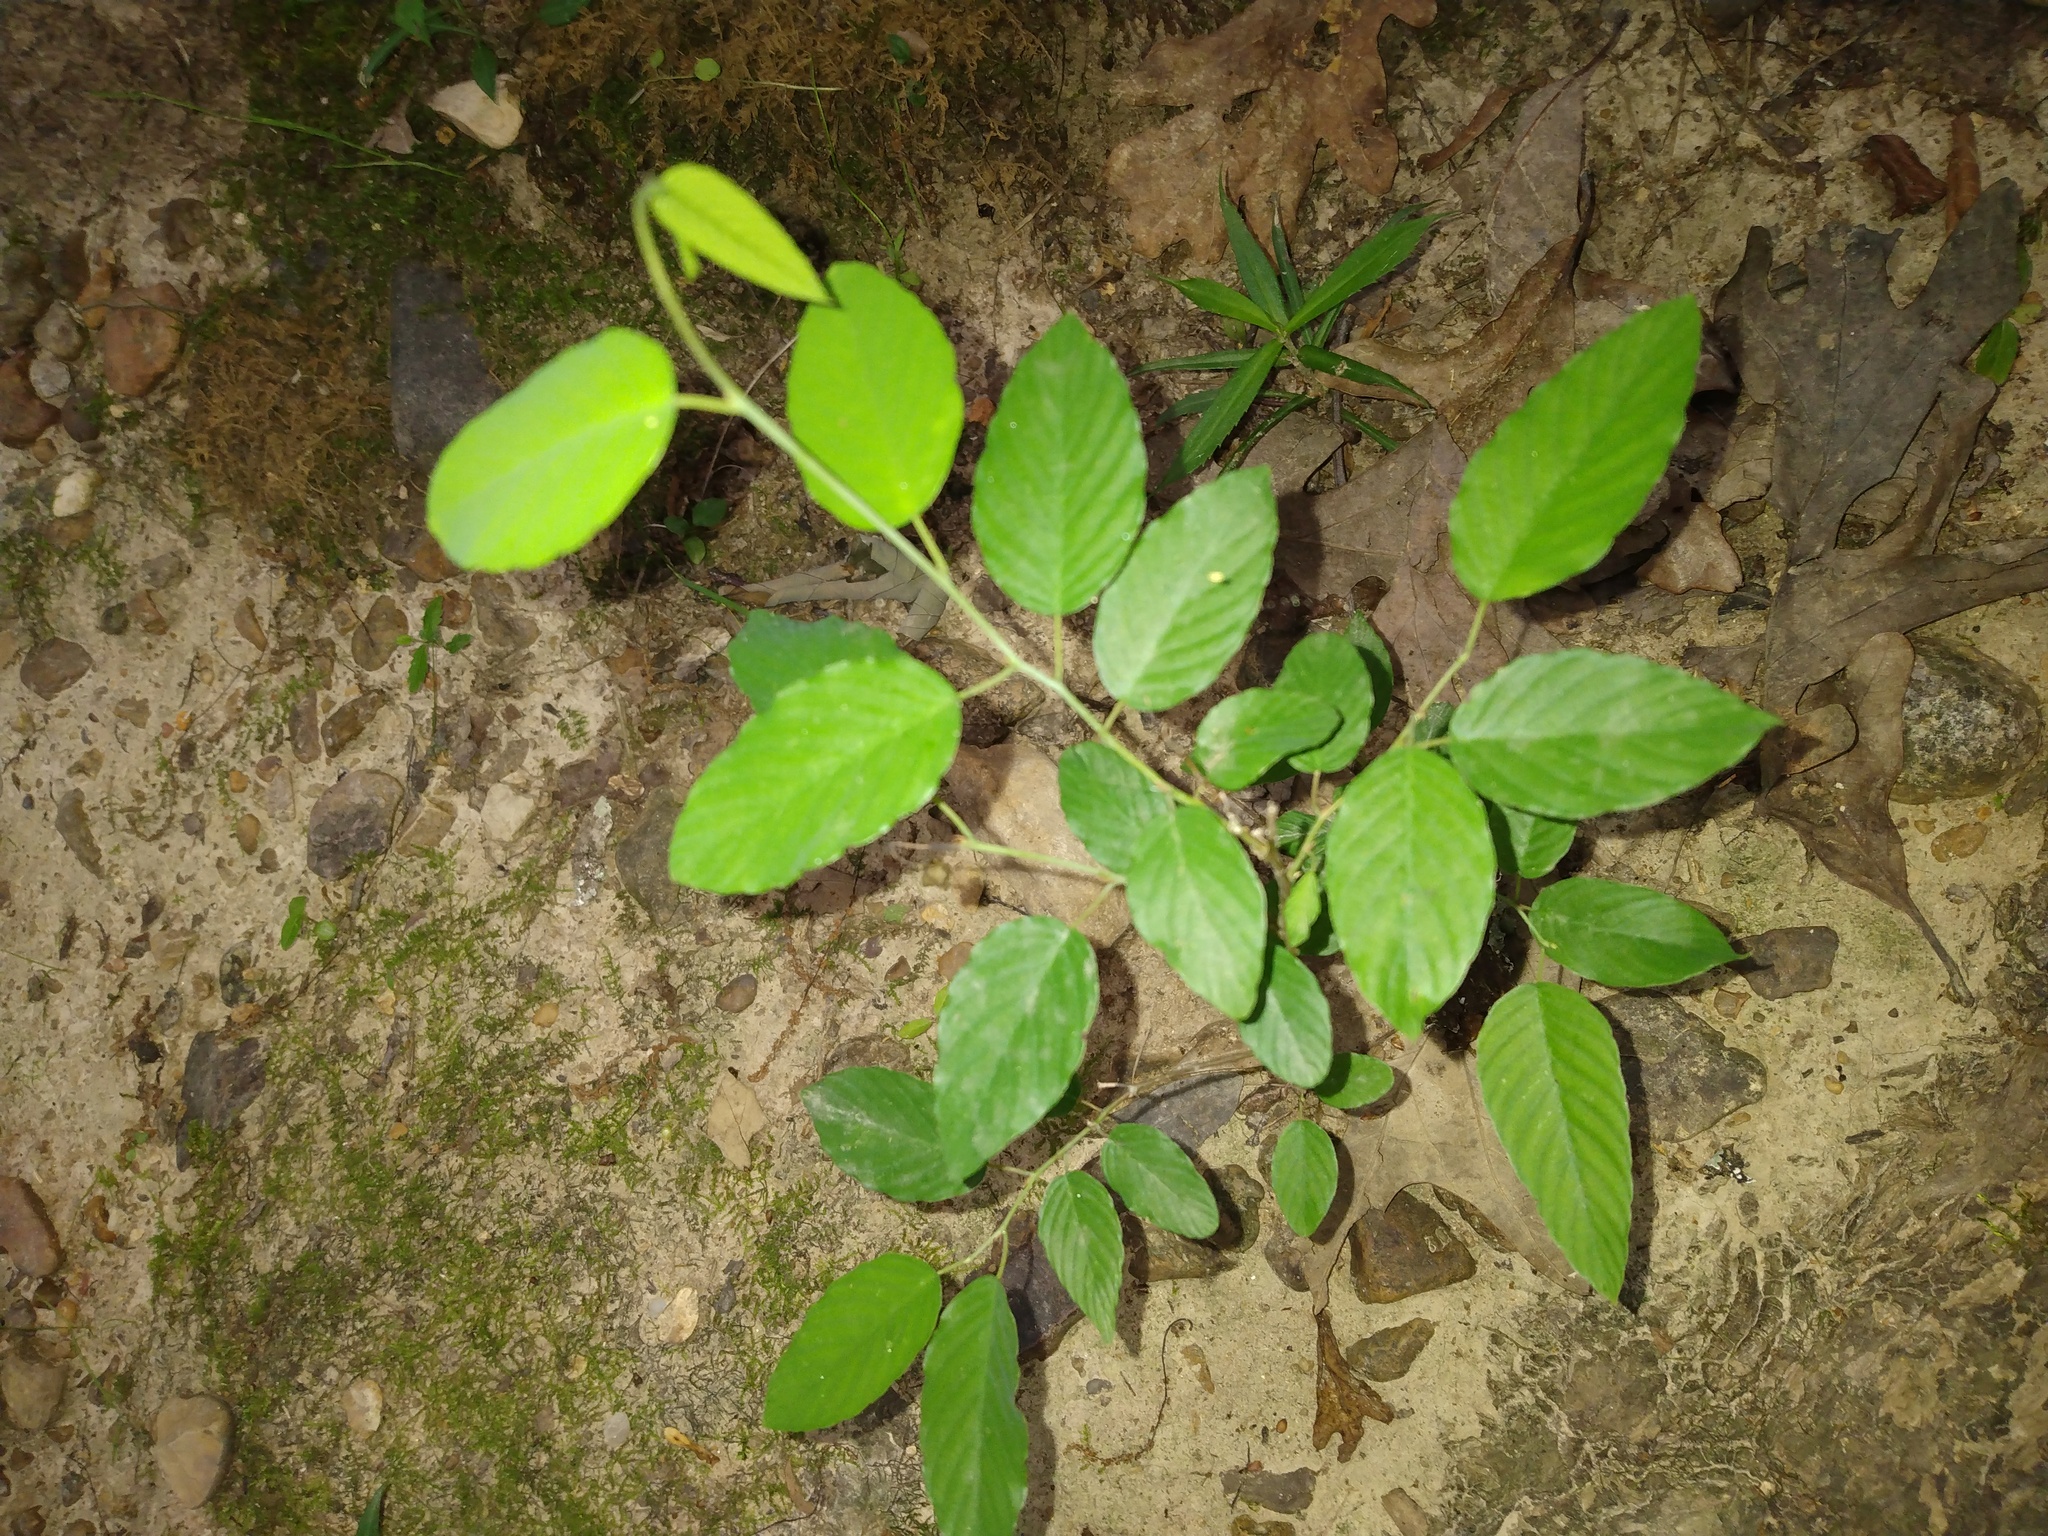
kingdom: Plantae
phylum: Tracheophyta
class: Magnoliopsida
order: Rosales
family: Rhamnaceae
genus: Berchemia
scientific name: Berchemia scandens
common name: Supplejack
